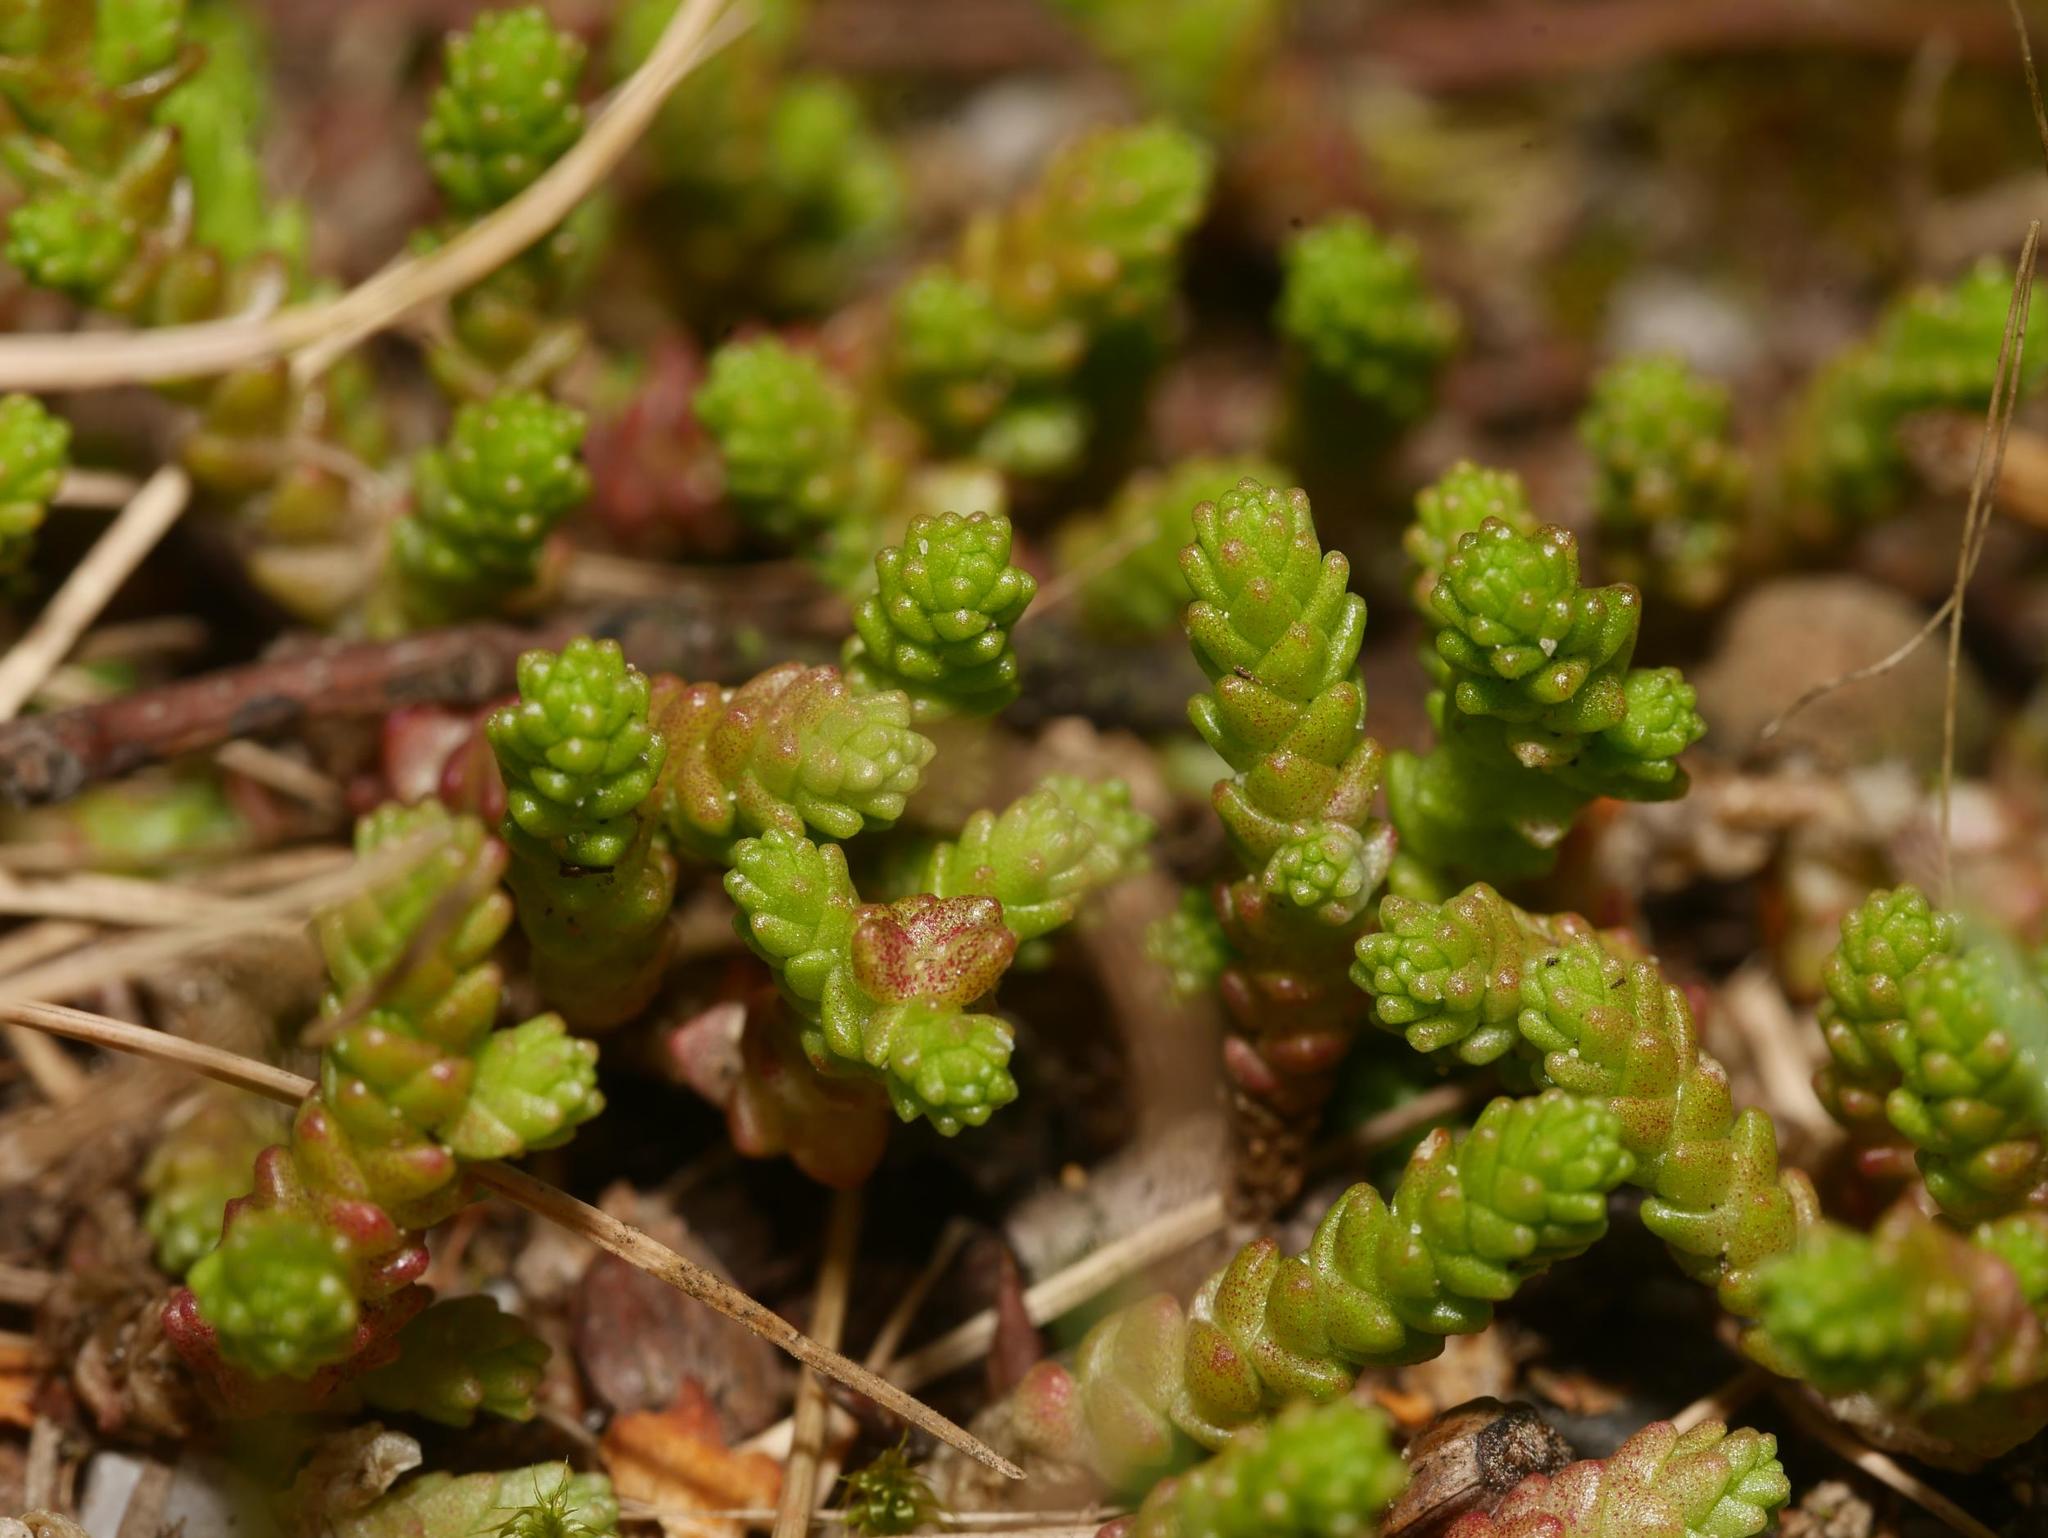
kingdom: Plantae
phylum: Tracheophyta
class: Magnoliopsida
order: Saxifragales
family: Crassulaceae
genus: Sedum
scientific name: Sedum acre
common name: Biting stonecrop
